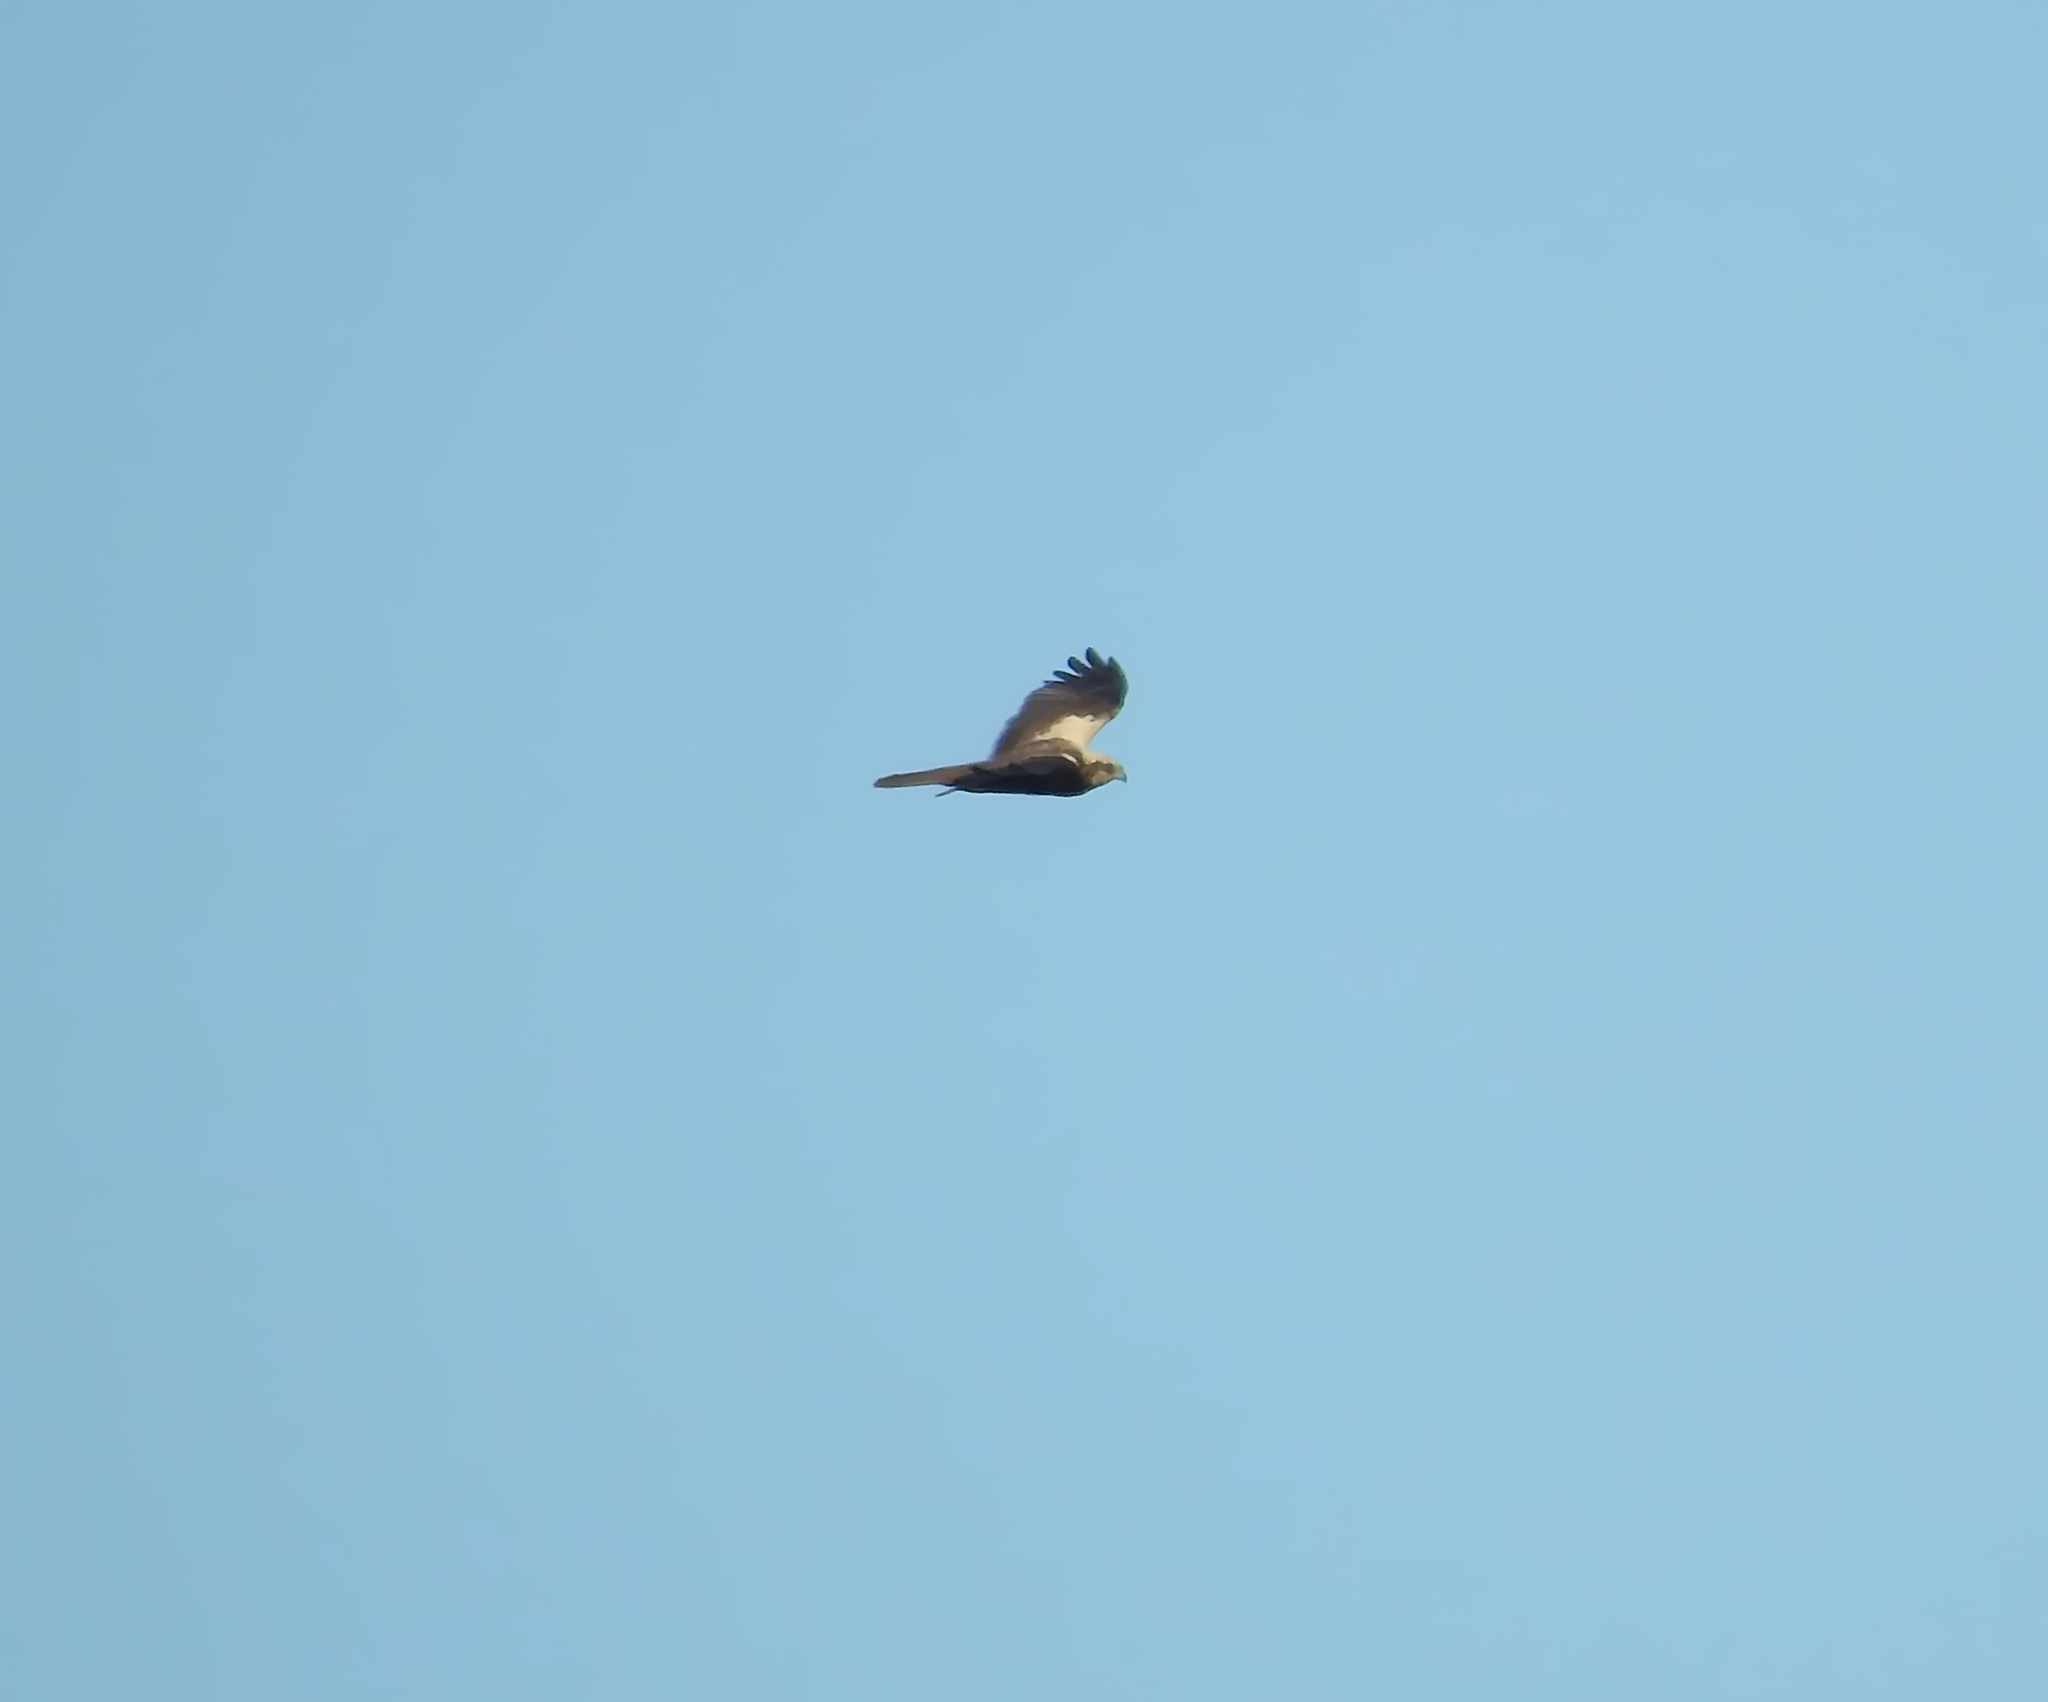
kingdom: Animalia
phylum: Chordata
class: Aves
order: Accipitriformes
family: Accipitridae
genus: Circus
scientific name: Circus aeruginosus
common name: Western marsh harrier
